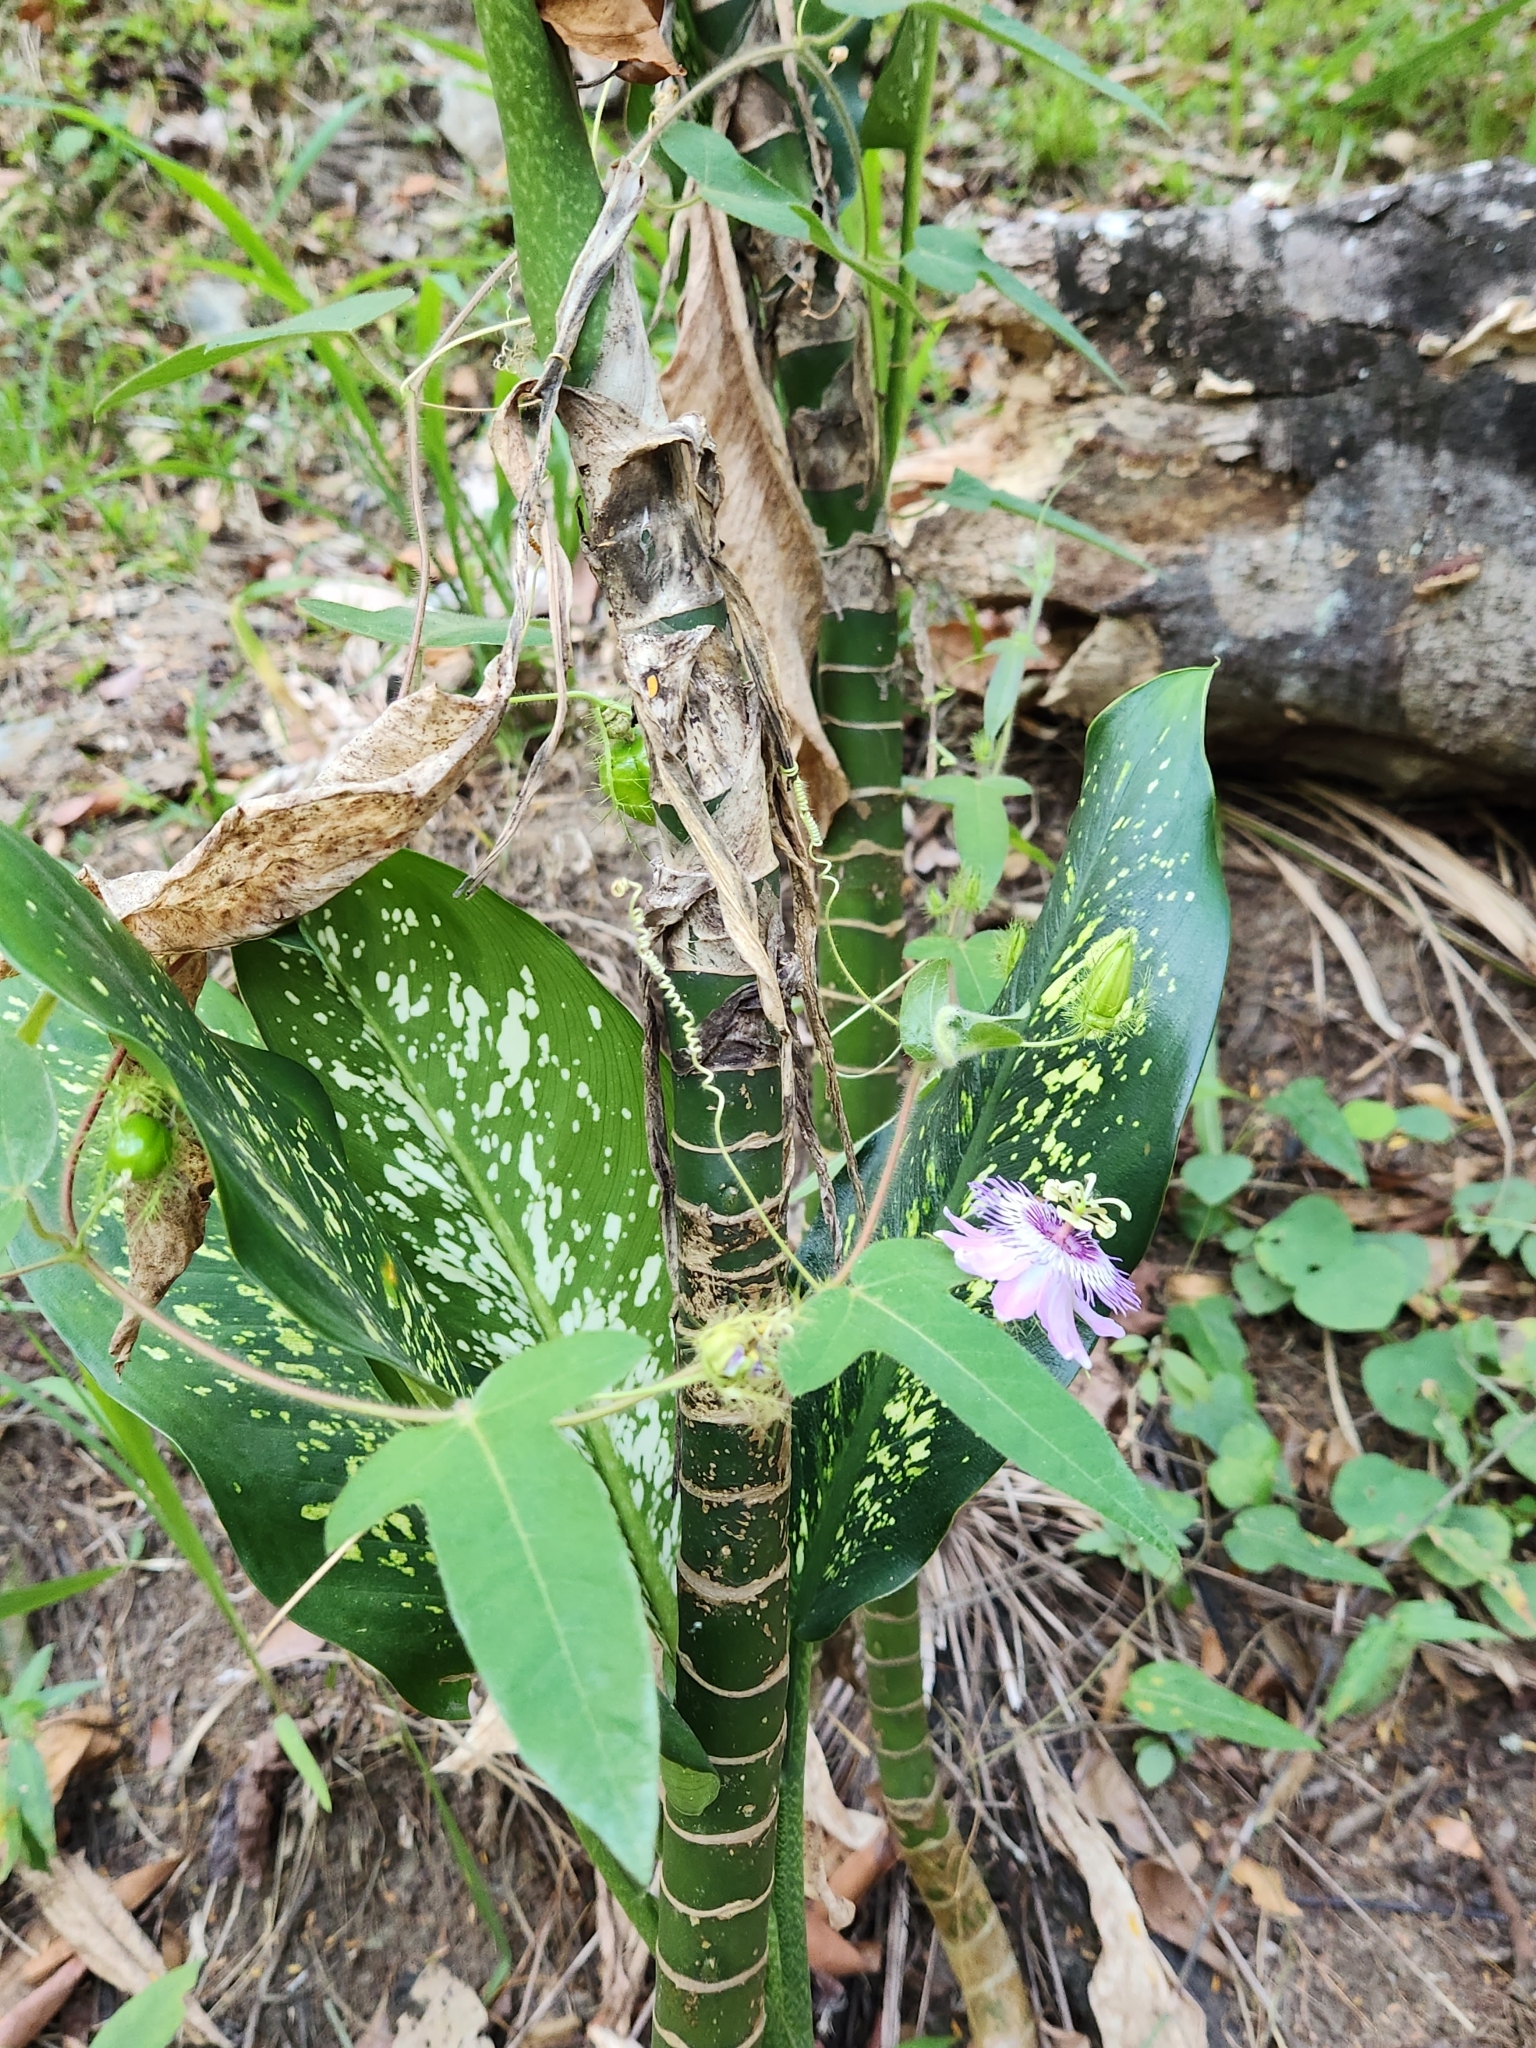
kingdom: Plantae
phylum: Tracheophyta
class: Magnoliopsida
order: Malpighiales
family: Passifloraceae
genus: Passiflora
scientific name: Passiflora foetida
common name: Fetid passionflower
